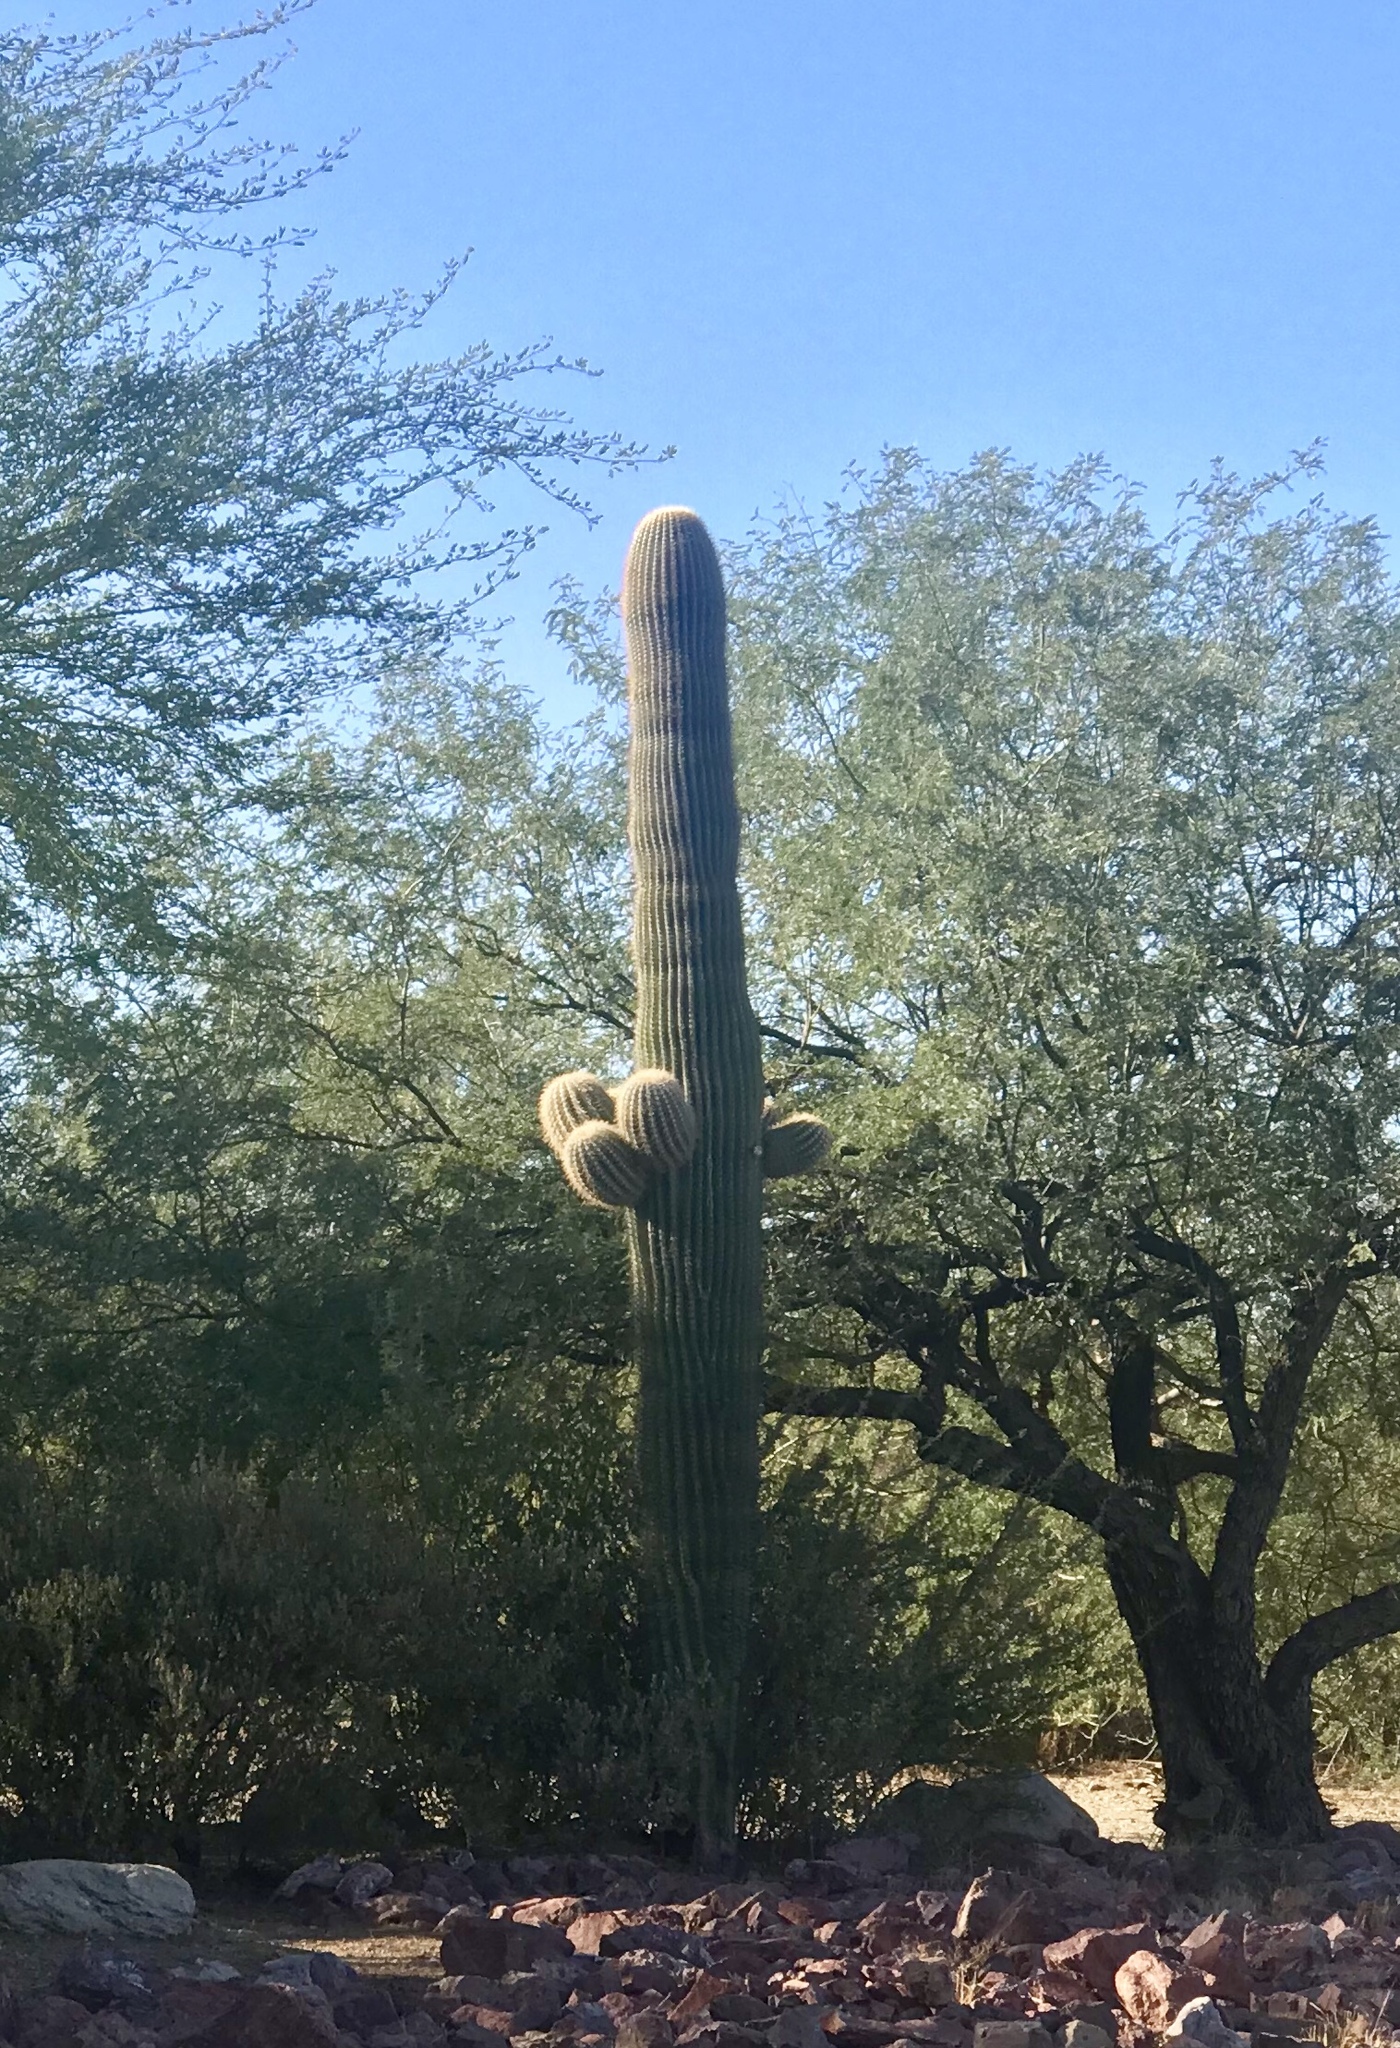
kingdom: Plantae
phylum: Tracheophyta
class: Magnoliopsida
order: Caryophyllales
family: Cactaceae
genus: Carnegiea
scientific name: Carnegiea gigantea
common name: Saguaro
